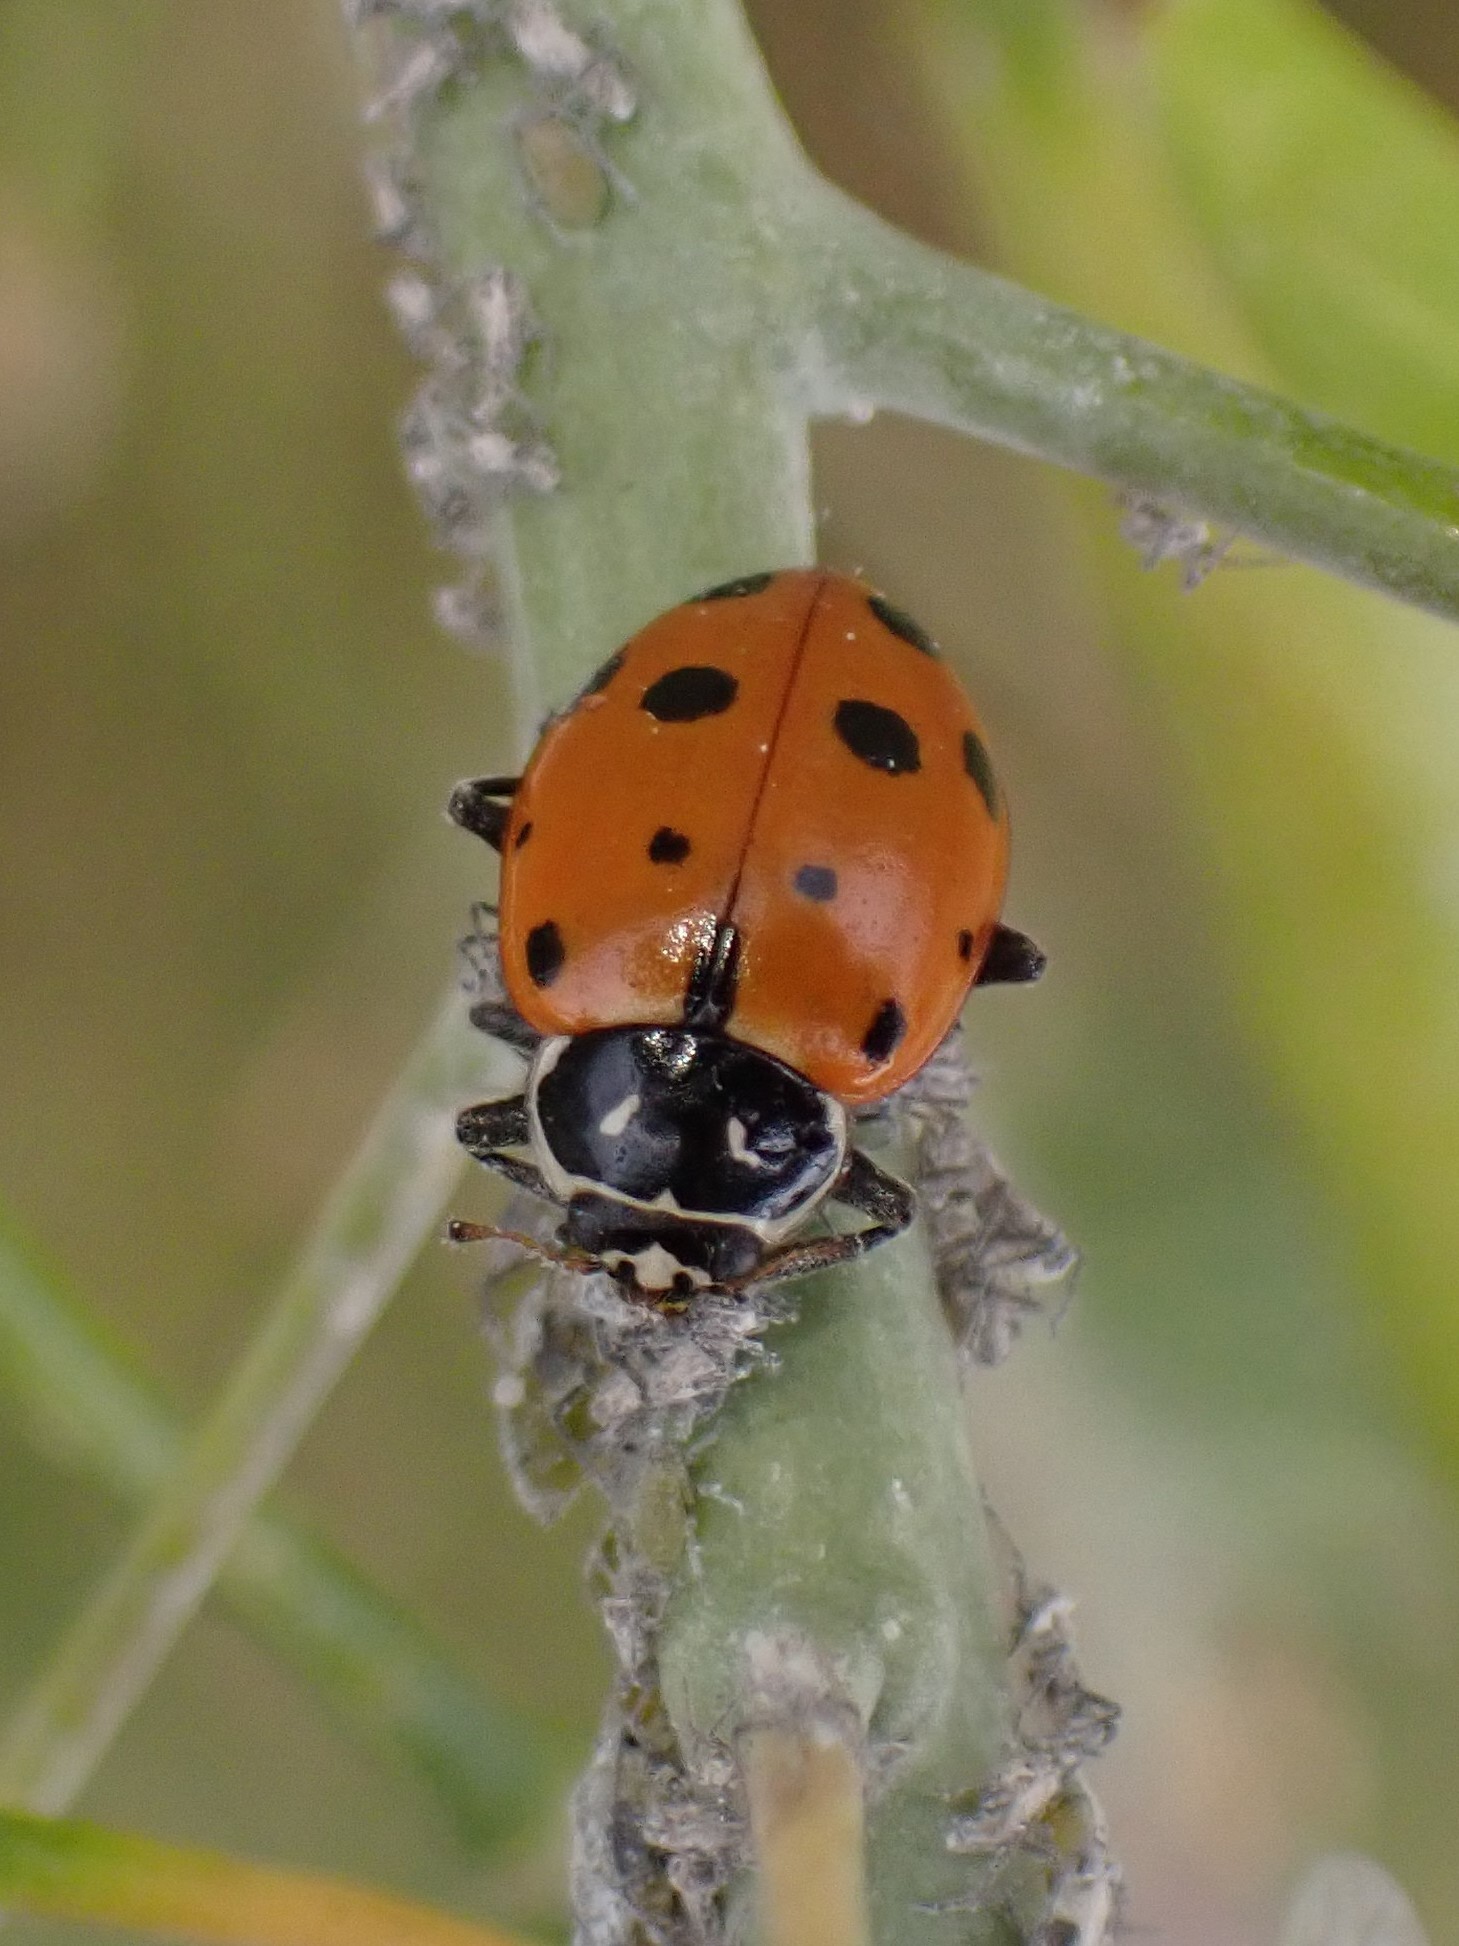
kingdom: Animalia
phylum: Arthropoda
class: Insecta
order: Coleoptera
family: Coccinellidae
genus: Hippodamia
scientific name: Hippodamia convergens
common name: Convergent lady beetle
